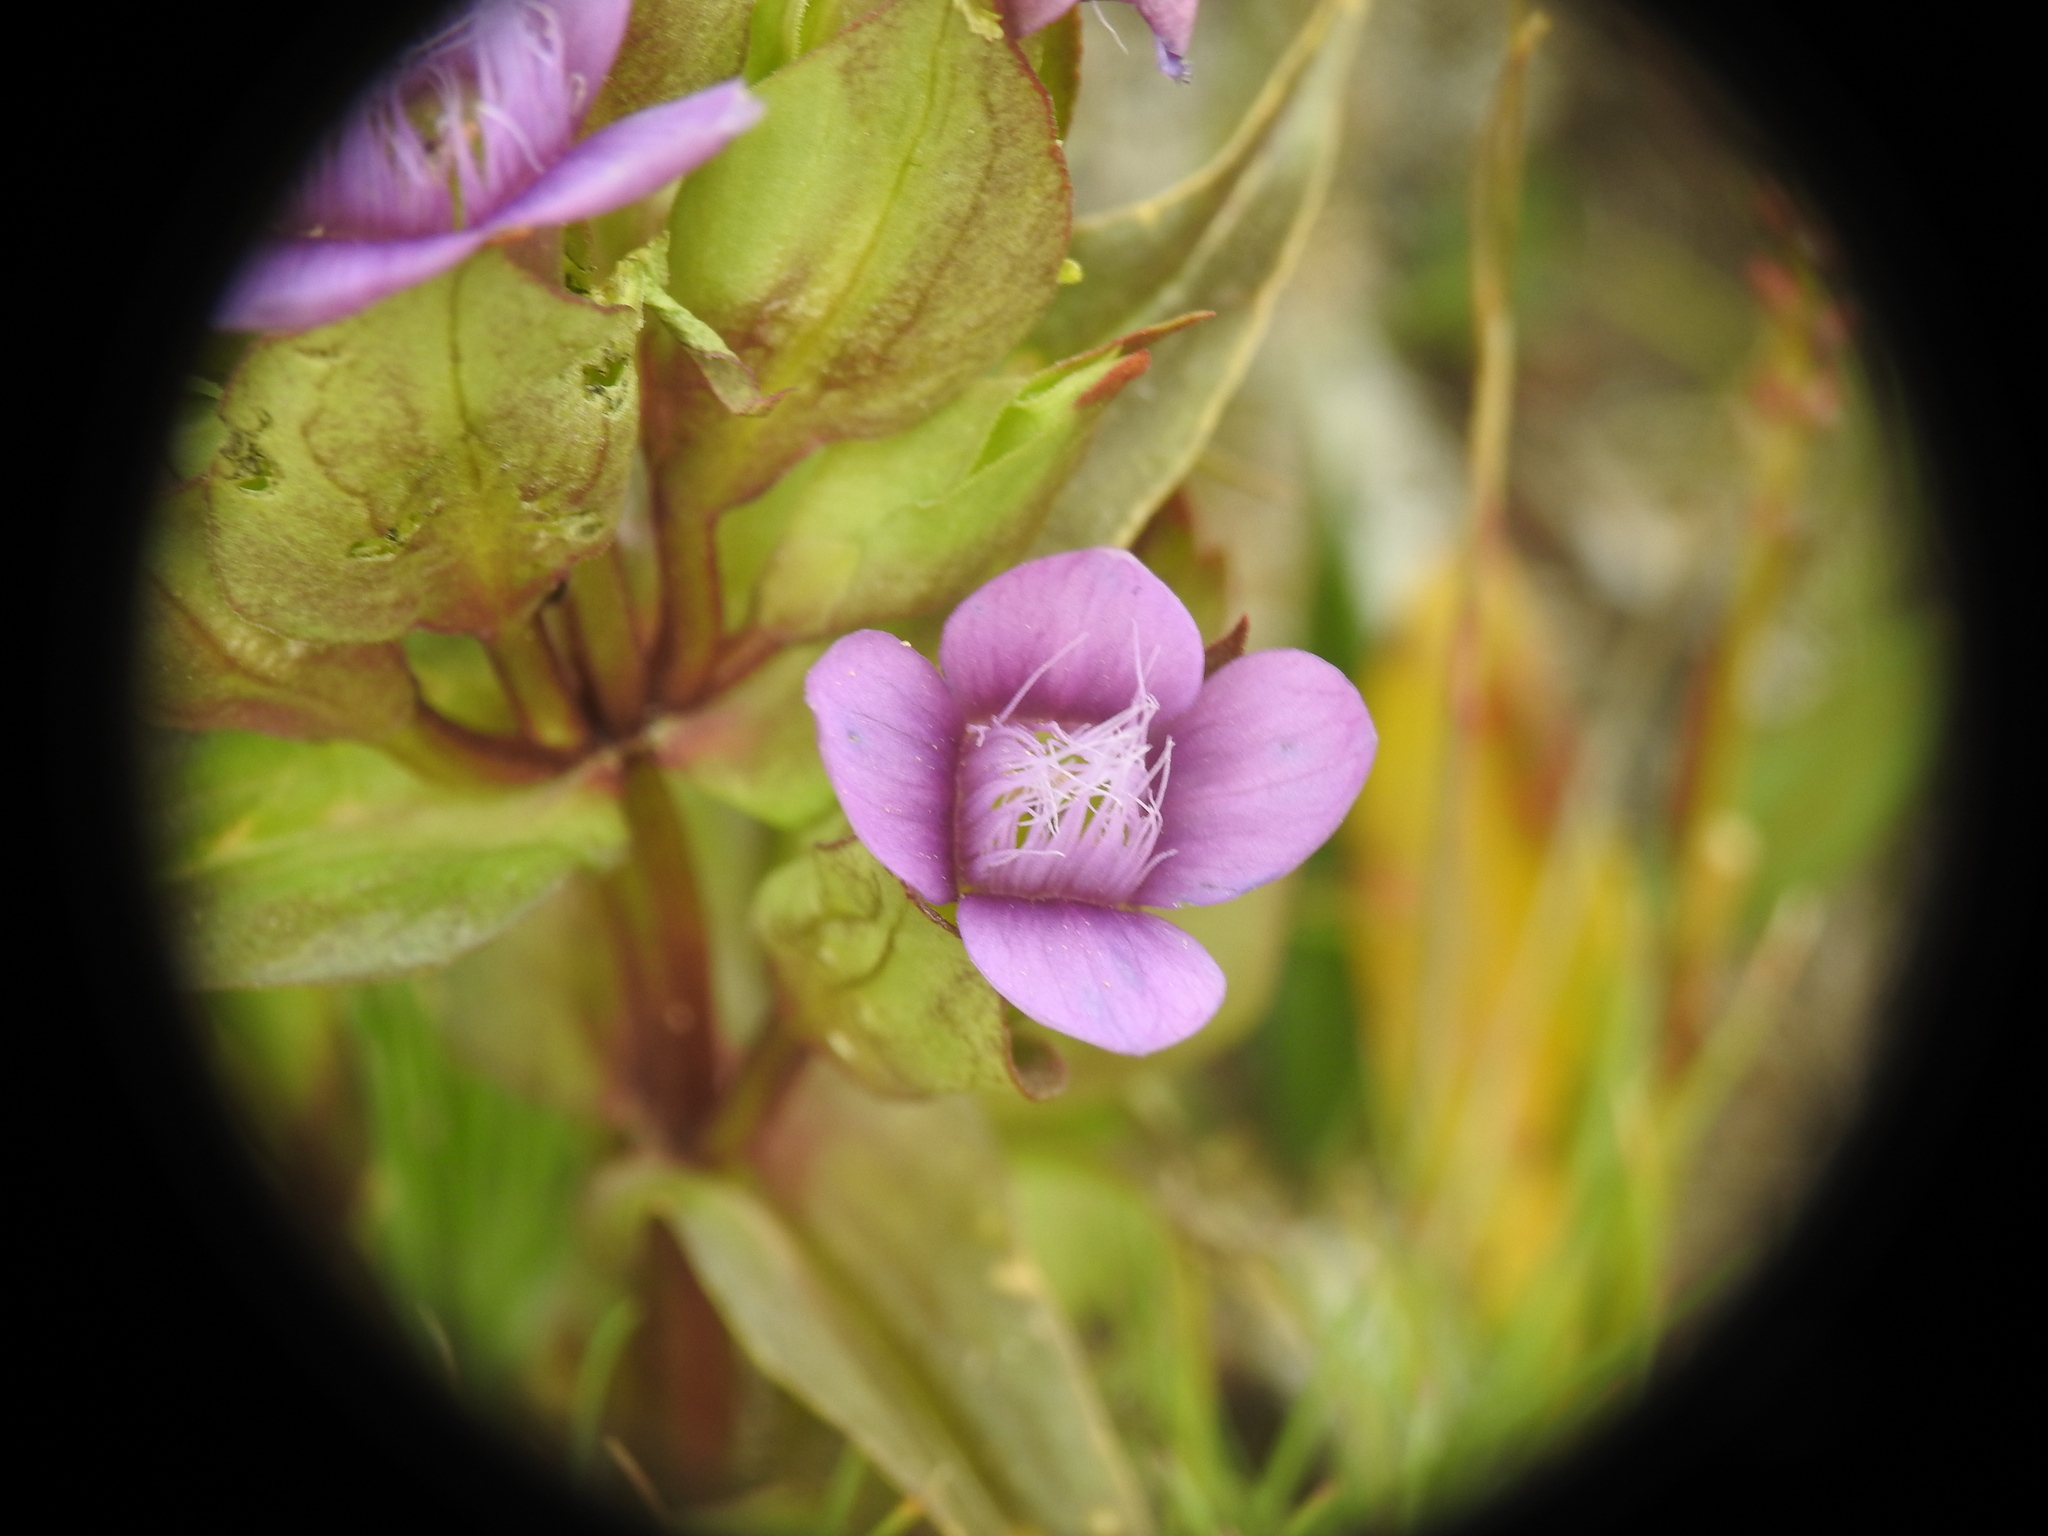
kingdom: Plantae
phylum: Tracheophyta
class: Magnoliopsida
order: Gentianales
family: Gentianaceae
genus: Gentianella
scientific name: Gentianella campestris
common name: Field gentian
